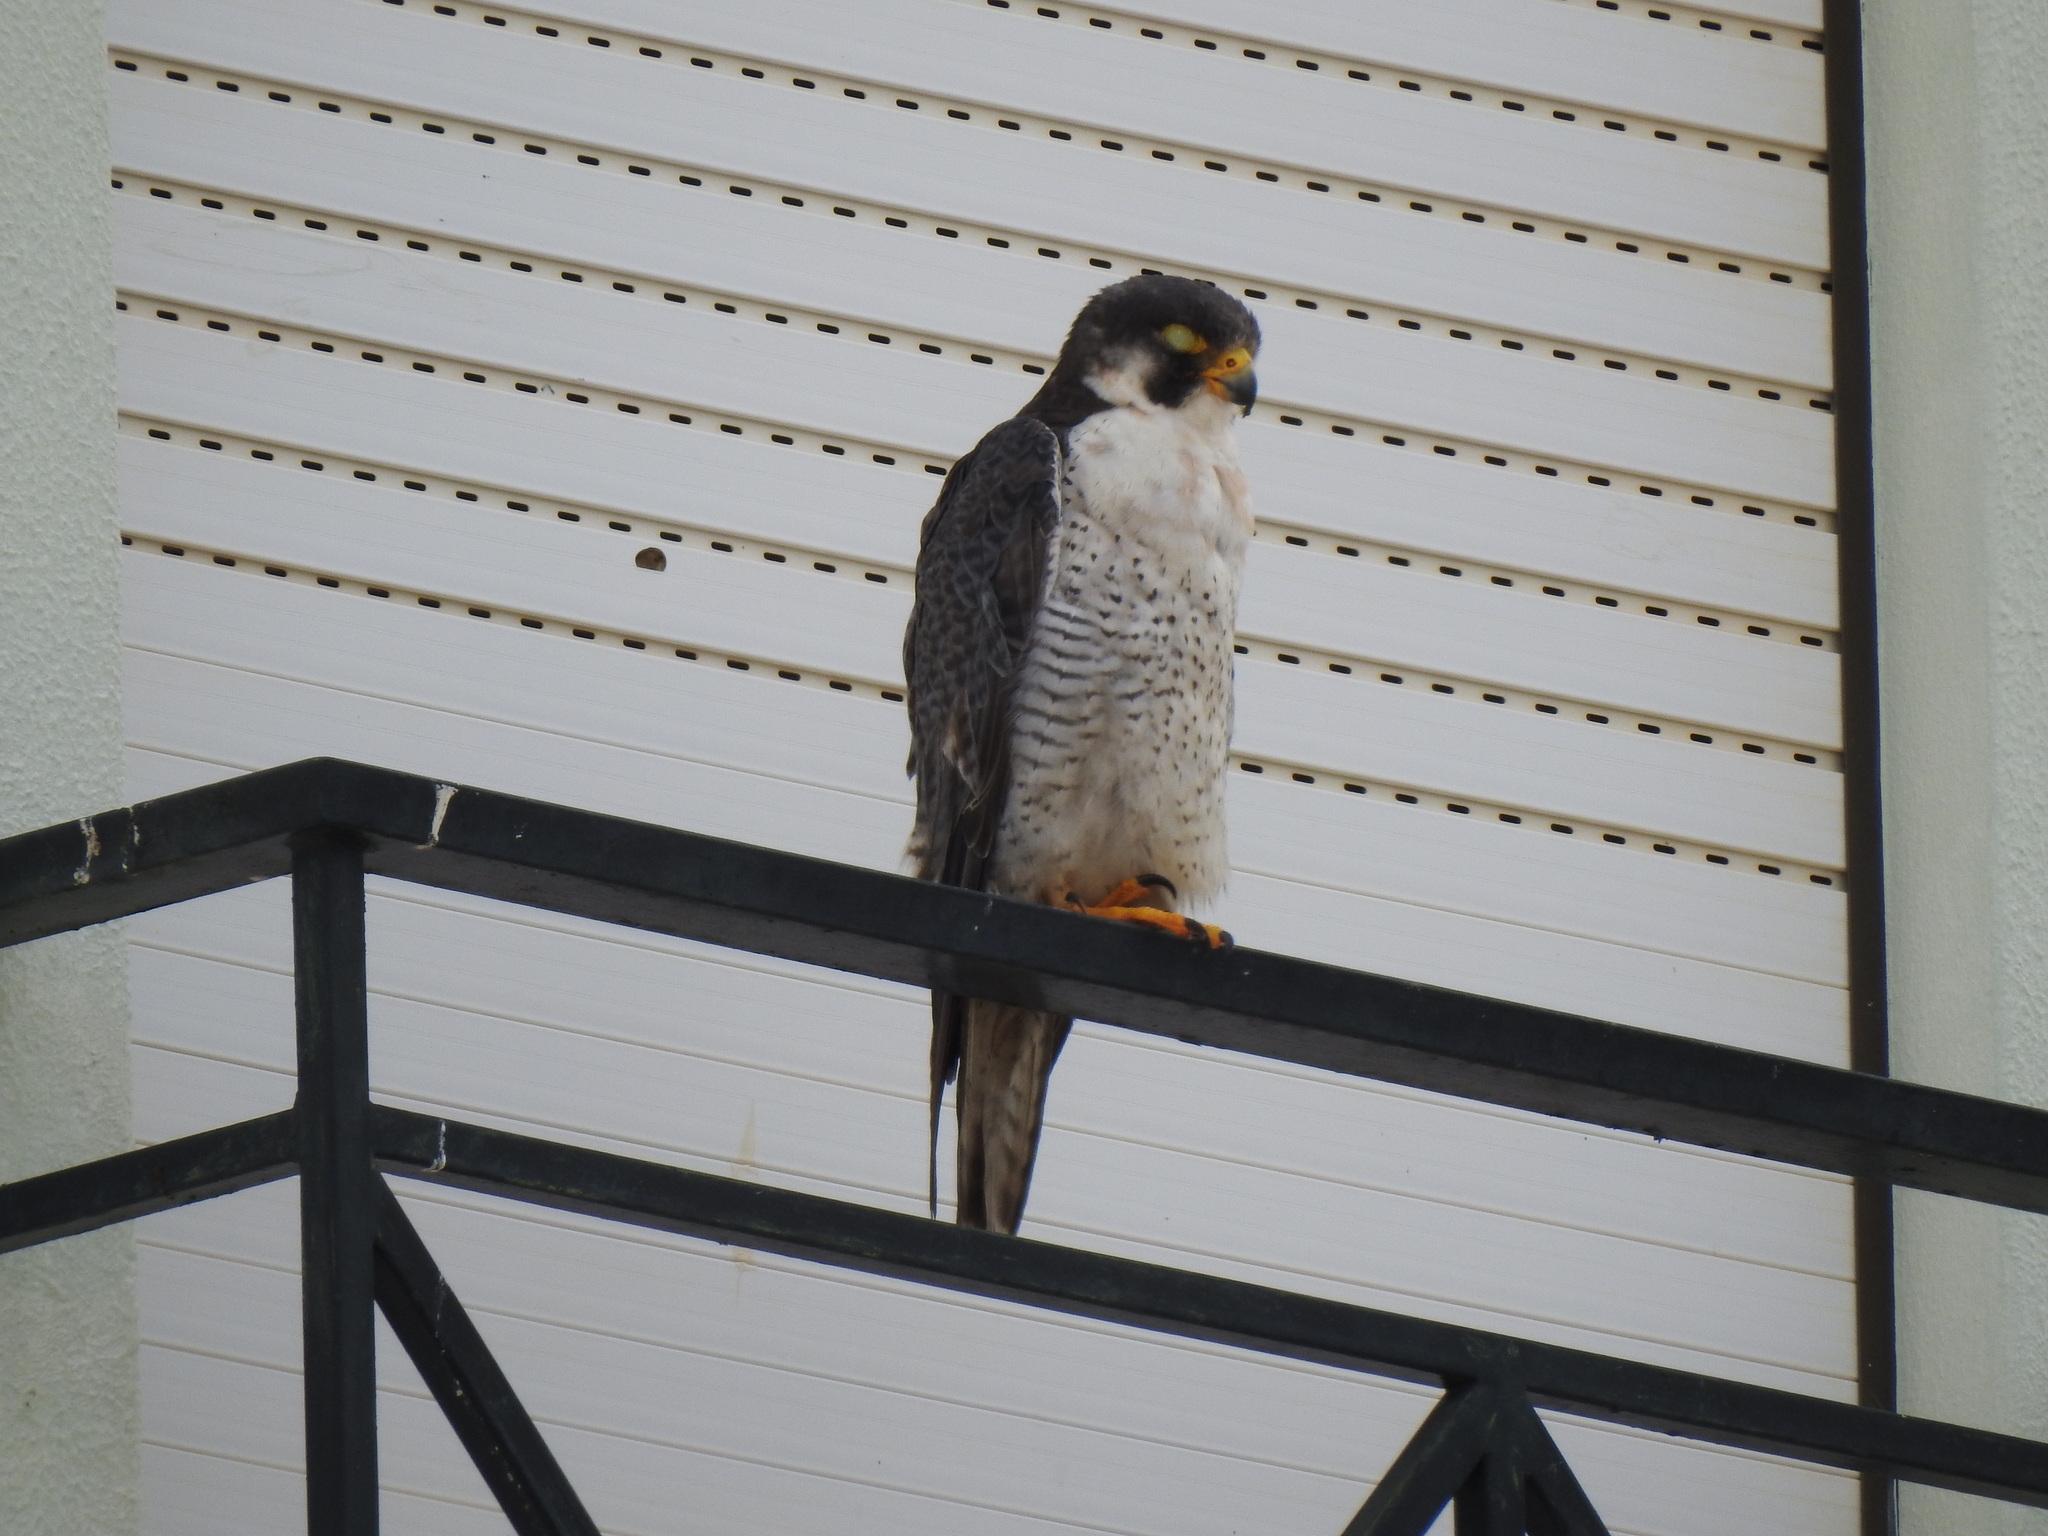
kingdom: Animalia
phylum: Chordata
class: Aves
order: Falconiformes
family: Falconidae
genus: Falco
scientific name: Falco peregrinus
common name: Peregrine falcon
